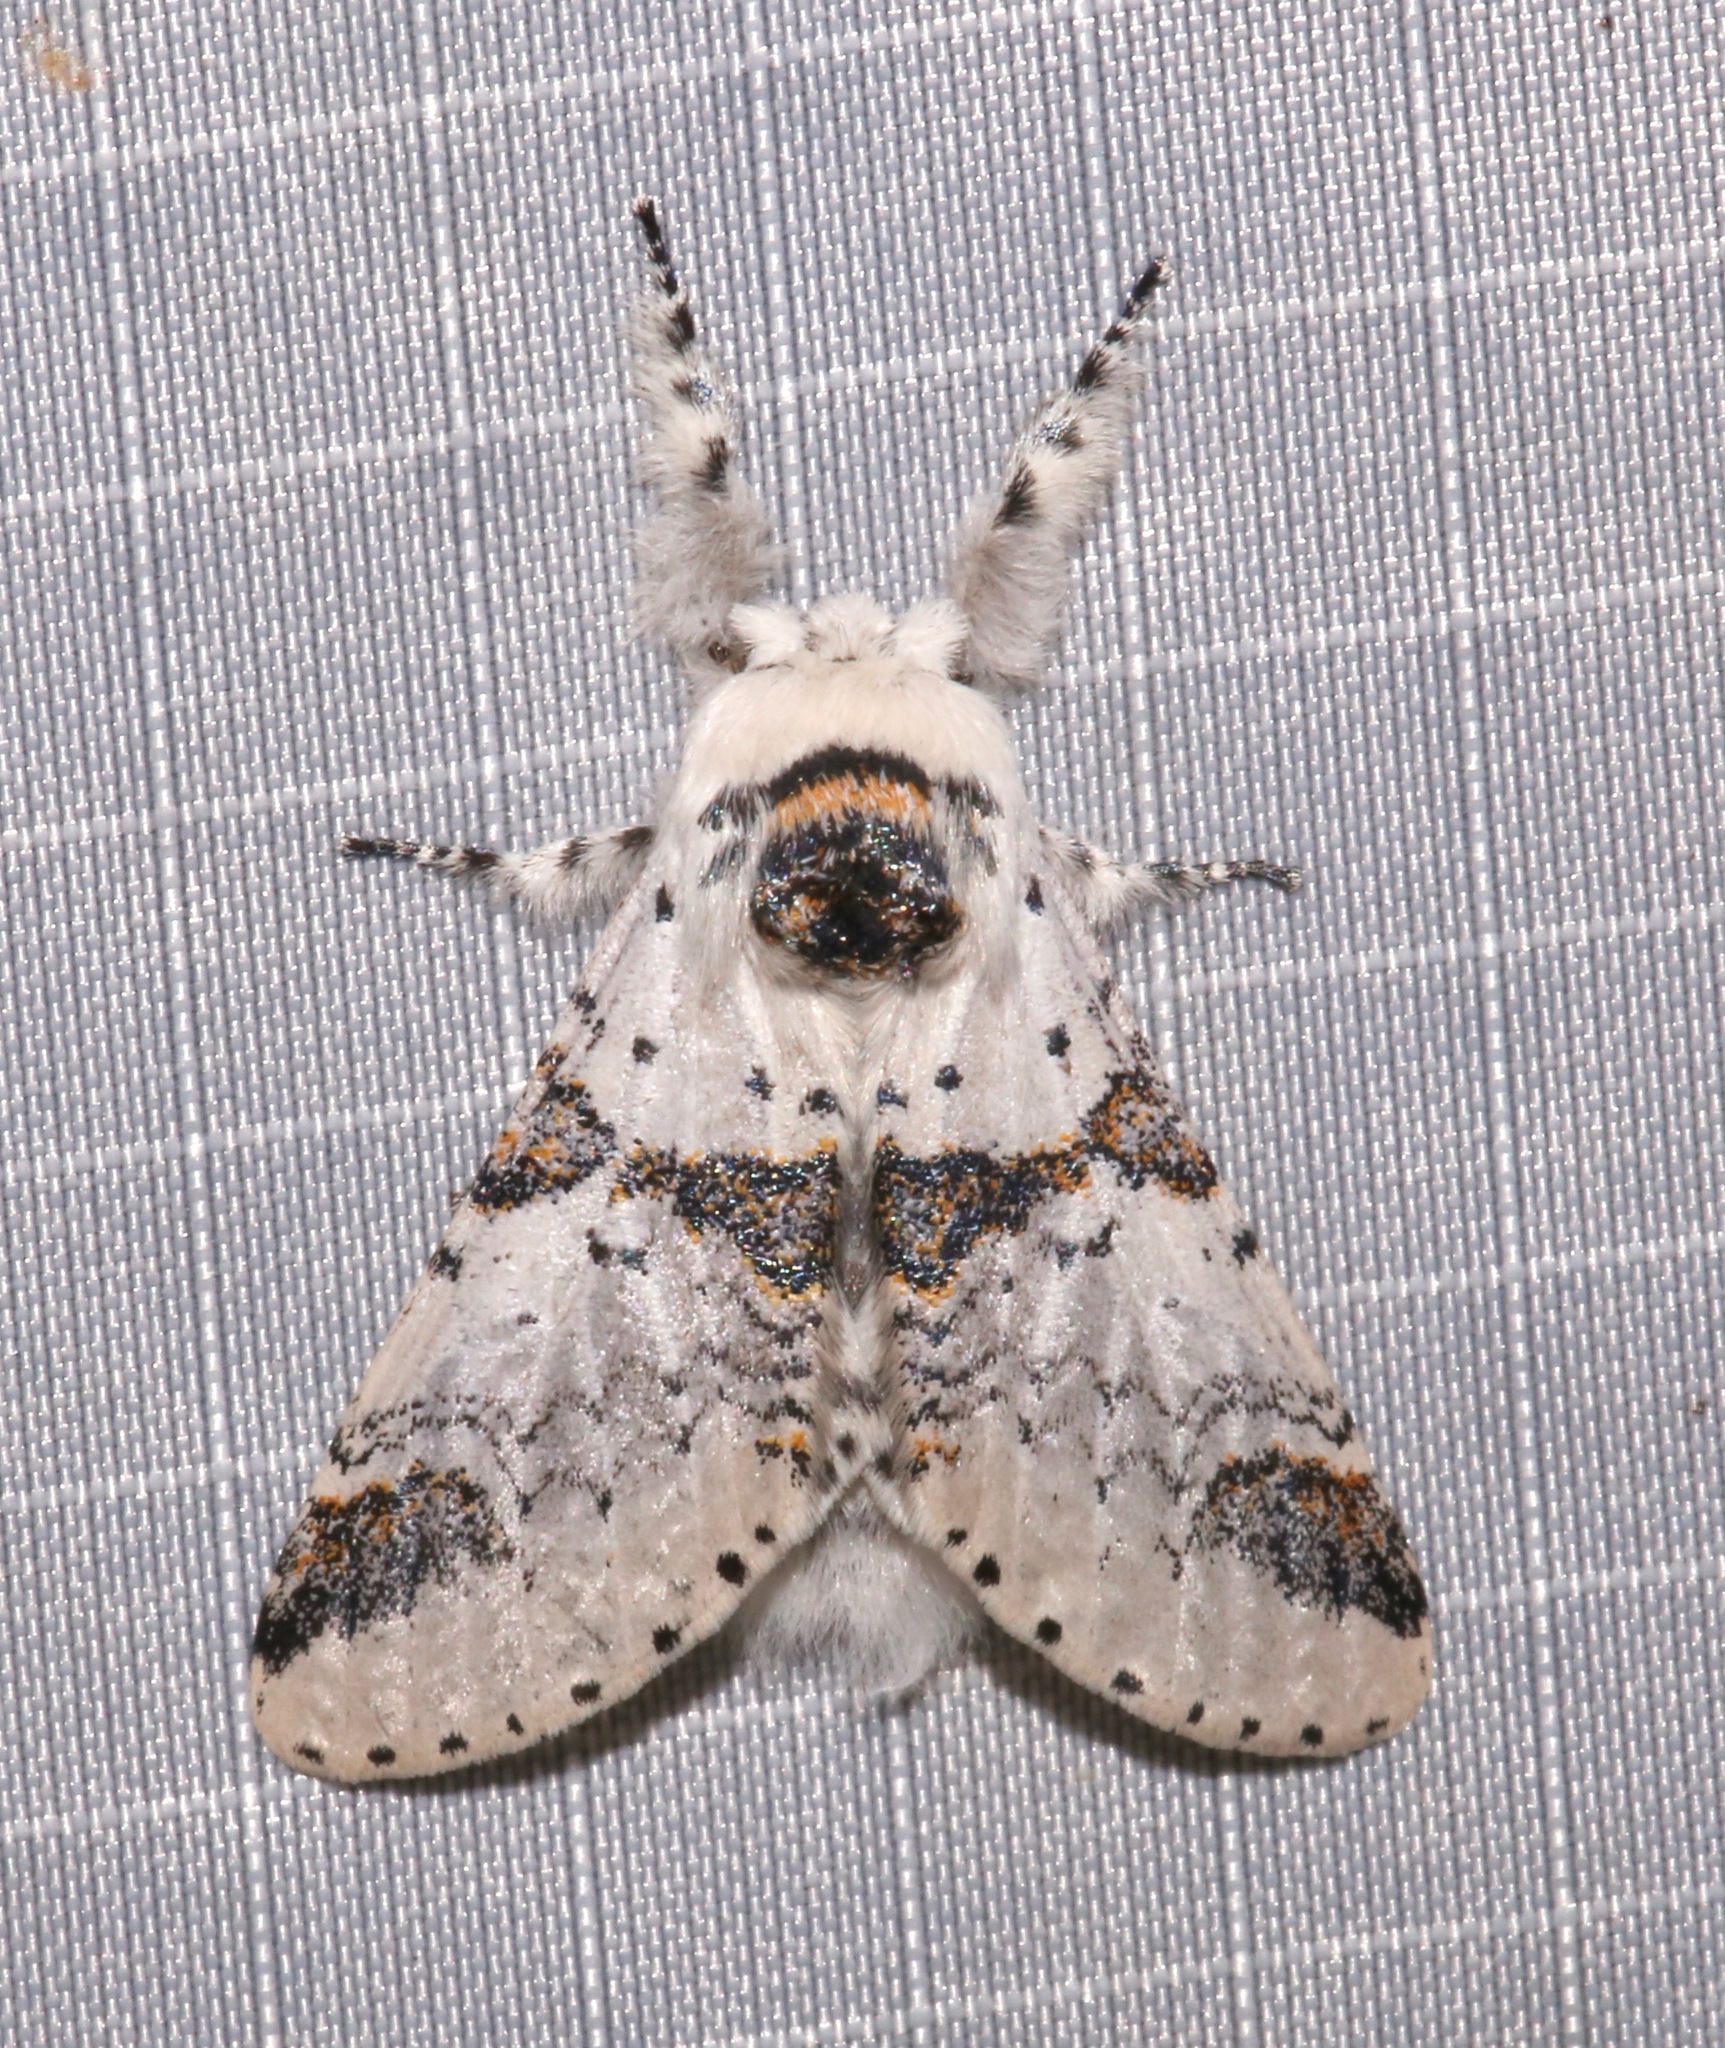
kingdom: Animalia
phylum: Arthropoda
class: Insecta
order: Lepidoptera
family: Notodontidae
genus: Furcula
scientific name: Furcula scolopendrina
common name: Zigzag furcula moth
